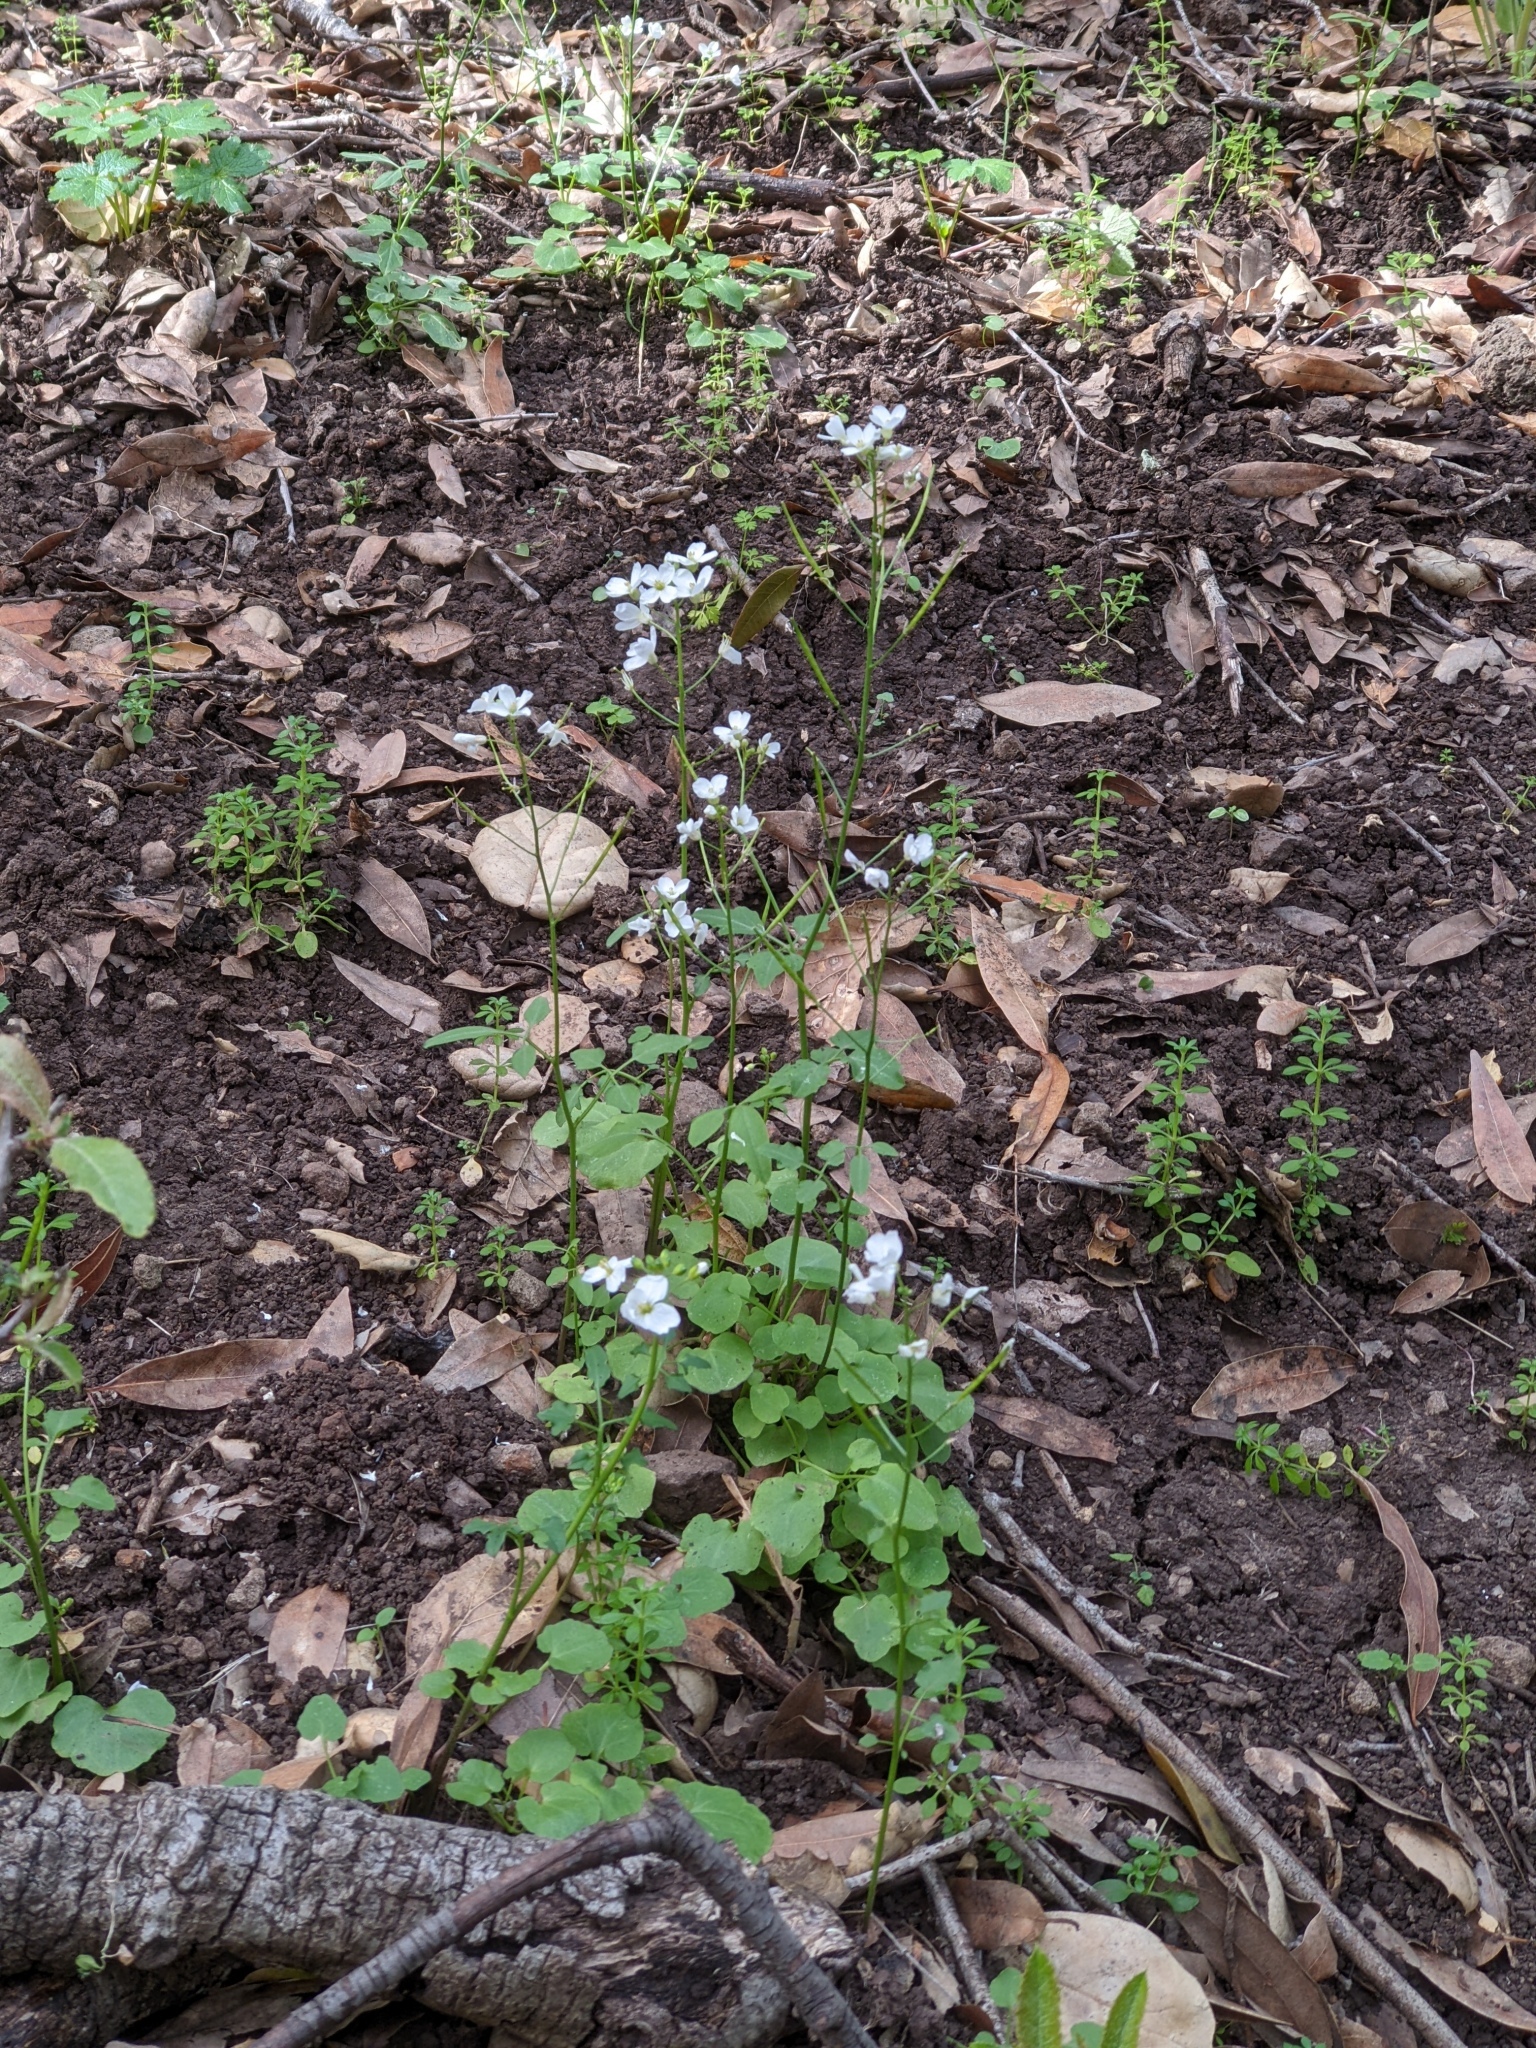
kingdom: Plantae
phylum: Tracheophyta
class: Magnoliopsida
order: Brassicales
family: Brassicaceae
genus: Cardamine
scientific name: Cardamine californica
